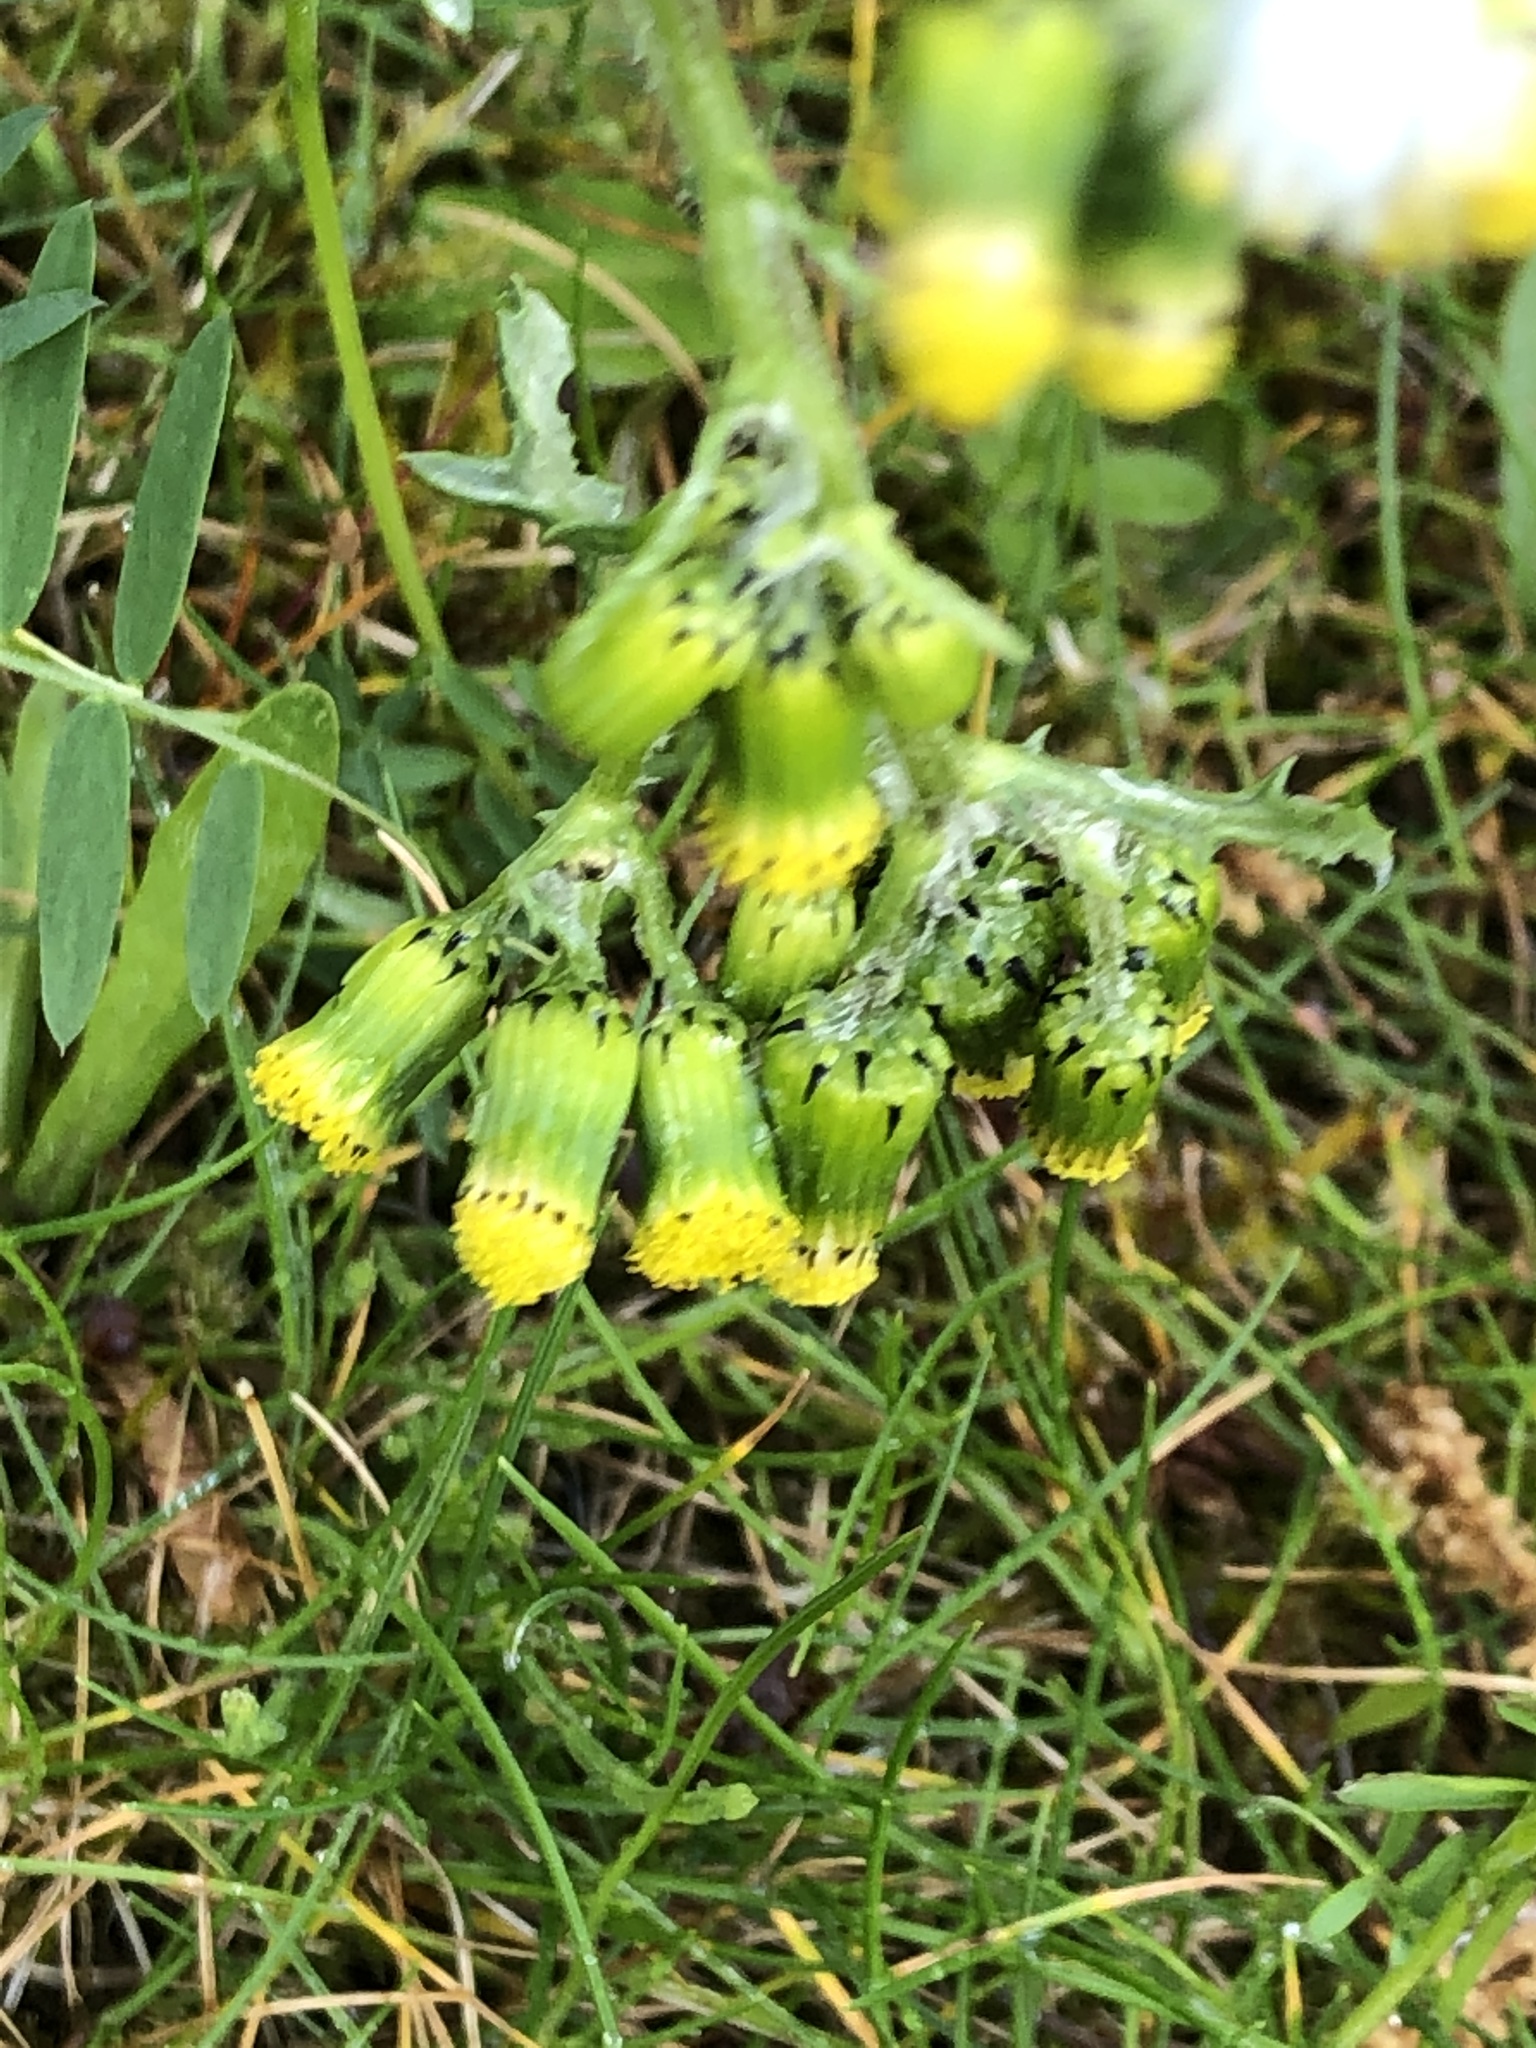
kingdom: Plantae
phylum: Tracheophyta
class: Magnoliopsida
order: Asterales
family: Asteraceae
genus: Senecio
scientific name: Senecio vulgaris
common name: Old-man-in-the-spring
